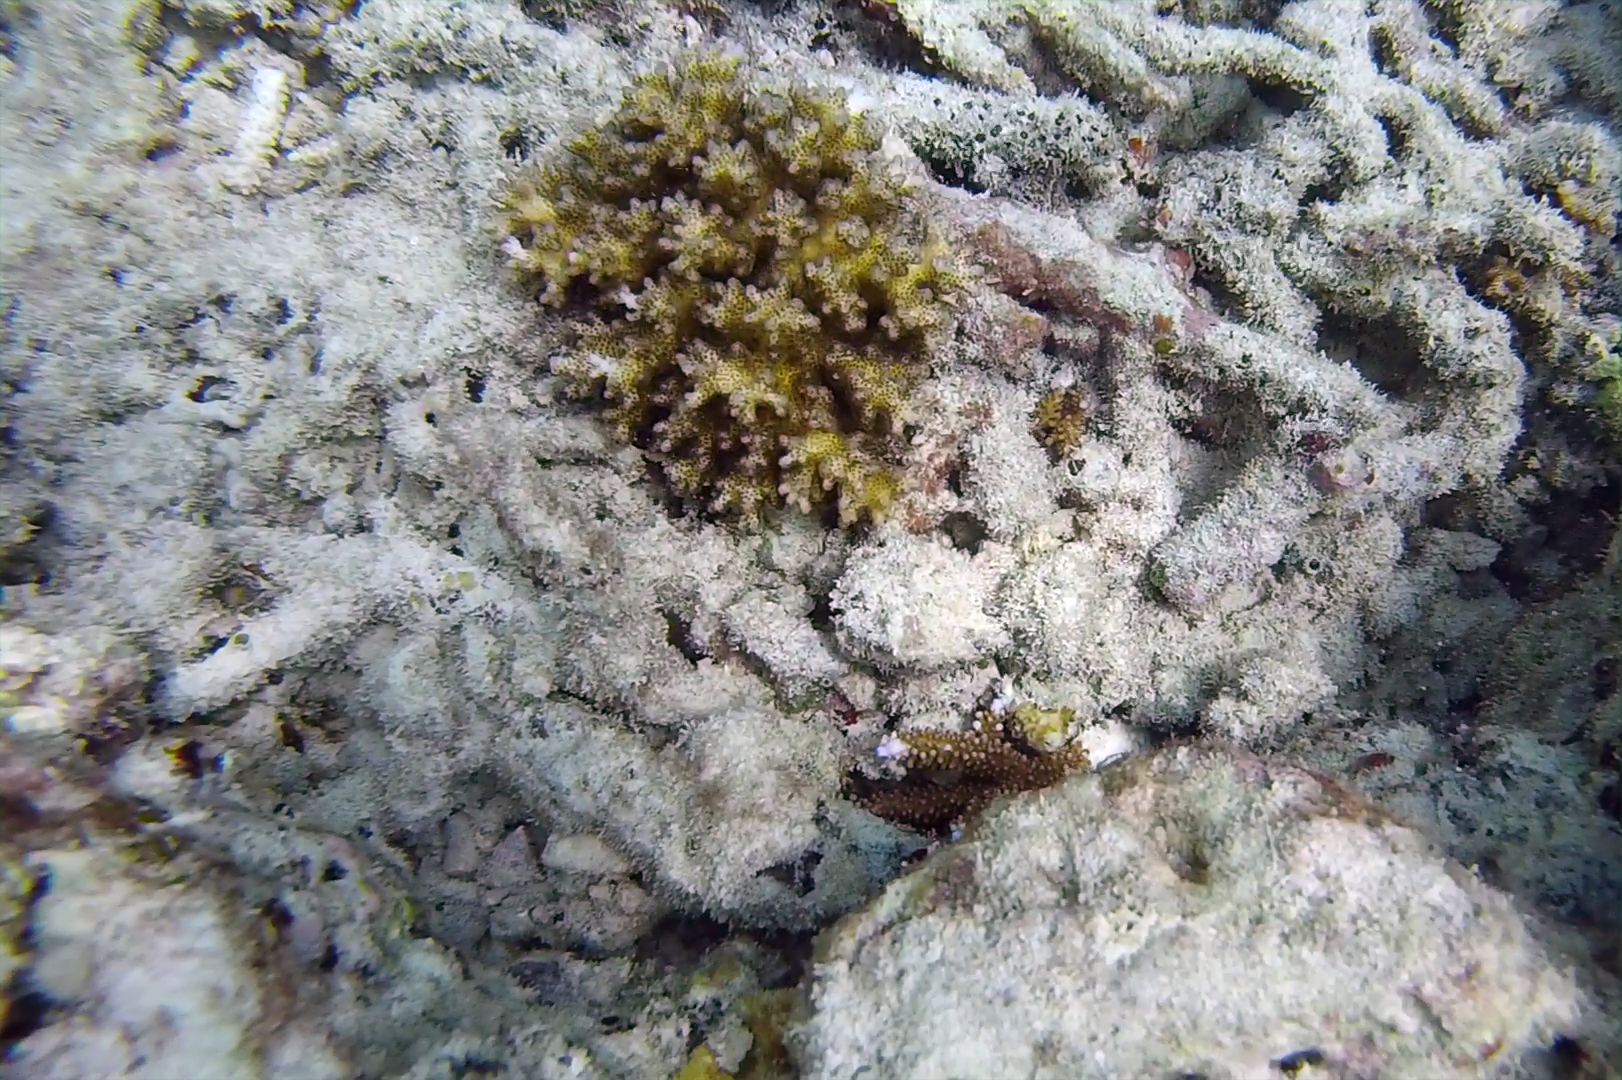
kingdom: Animalia
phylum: Cnidaria
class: Anthozoa
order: Scleractinia
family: Pocilloporidae
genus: Pocillopora
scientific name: Pocillopora damicornis
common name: Cauliflower coral
